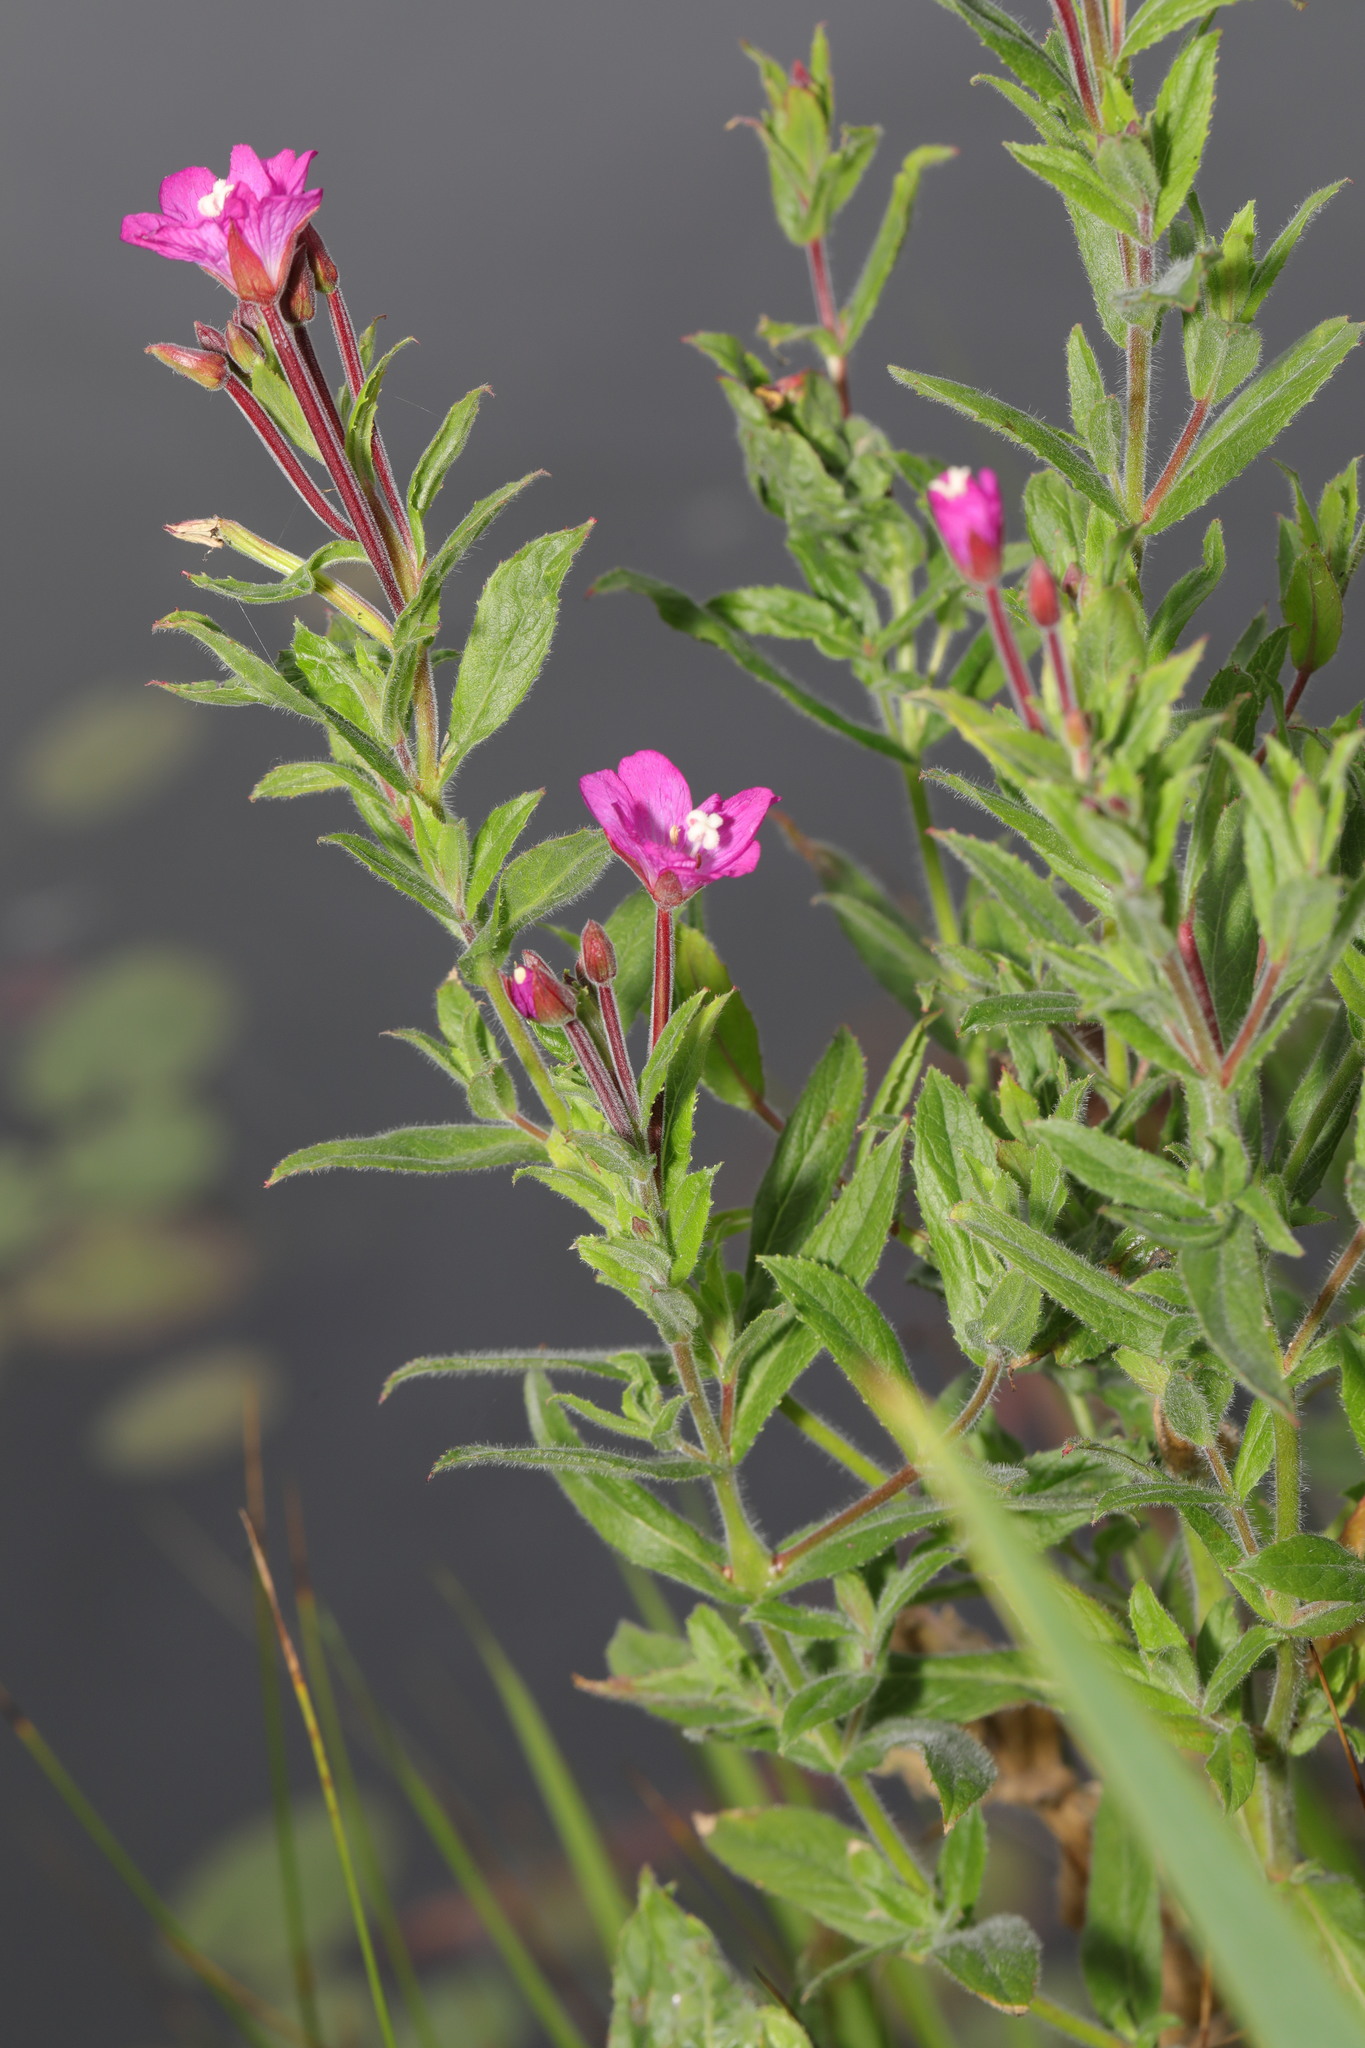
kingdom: Plantae
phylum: Tracheophyta
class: Magnoliopsida
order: Myrtales
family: Onagraceae
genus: Epilobium
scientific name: Epilobium hirsutum
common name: Great willowherb
